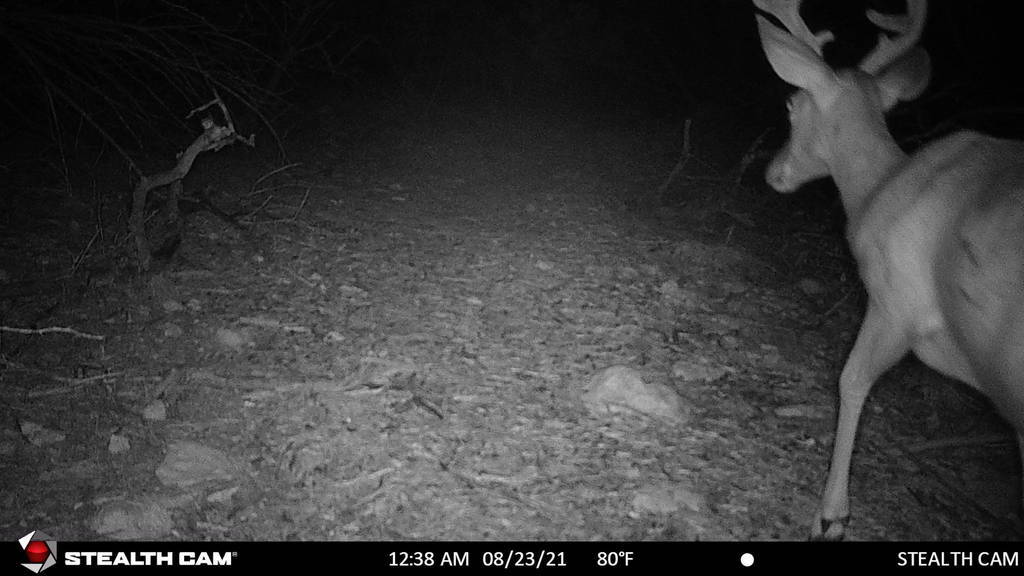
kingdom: Animalia
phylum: Chordata
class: Mammalia
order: Artiodactyla
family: Cervidae
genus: Odocoileus
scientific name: Odocoileus virginianus
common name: White-tailed deer
